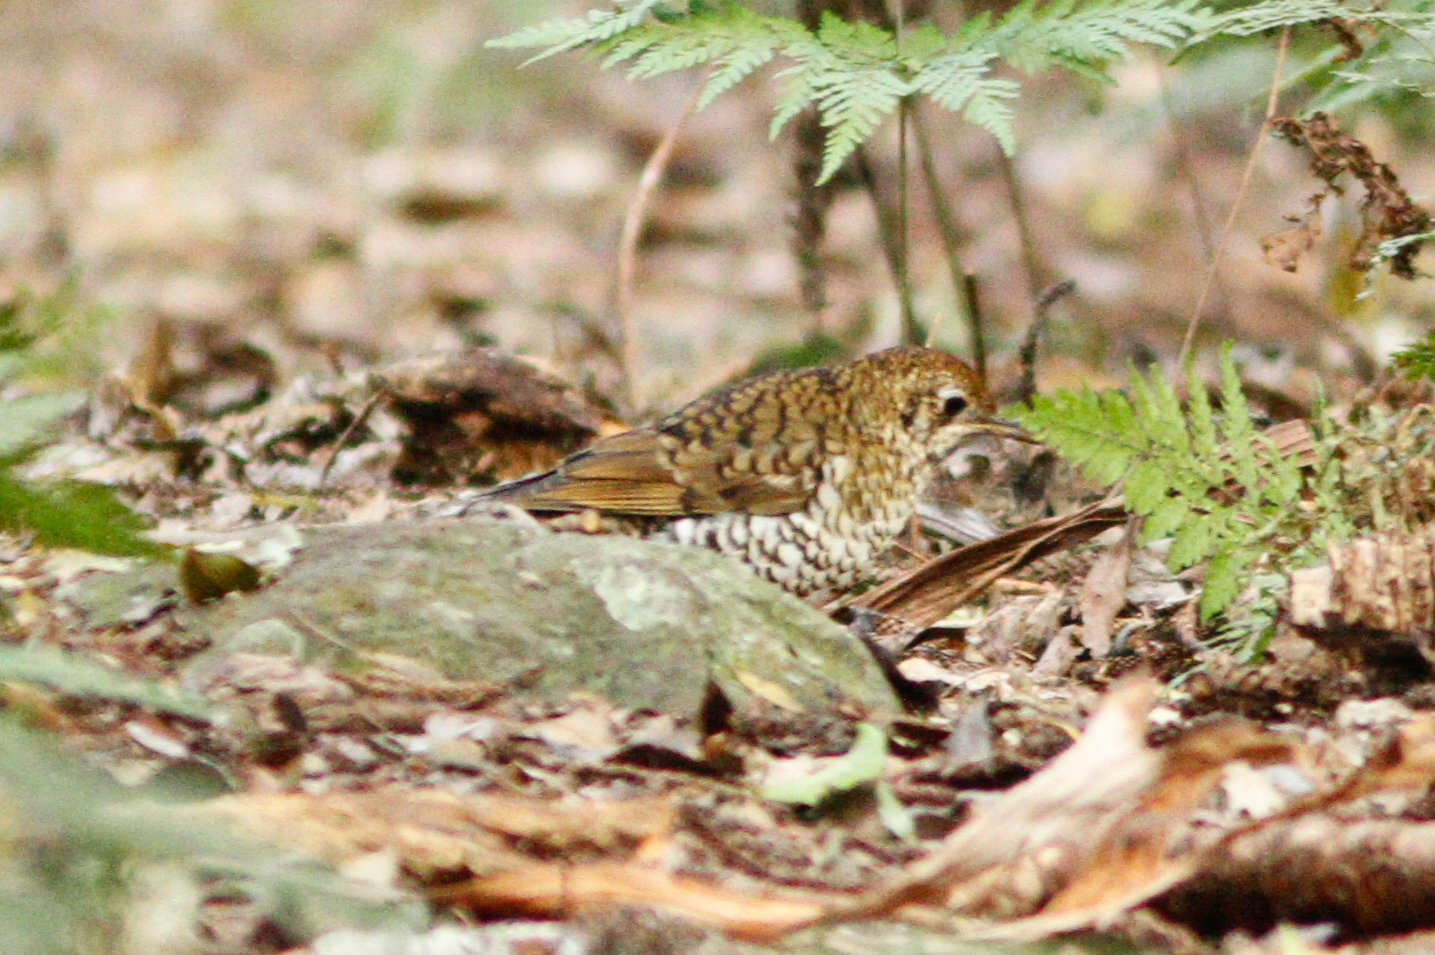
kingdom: Animalia
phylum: Chordata
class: Aves
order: Passeriformes
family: Turdidae
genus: Zoothera
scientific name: Zoothera lunulata
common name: Bassian thrush
